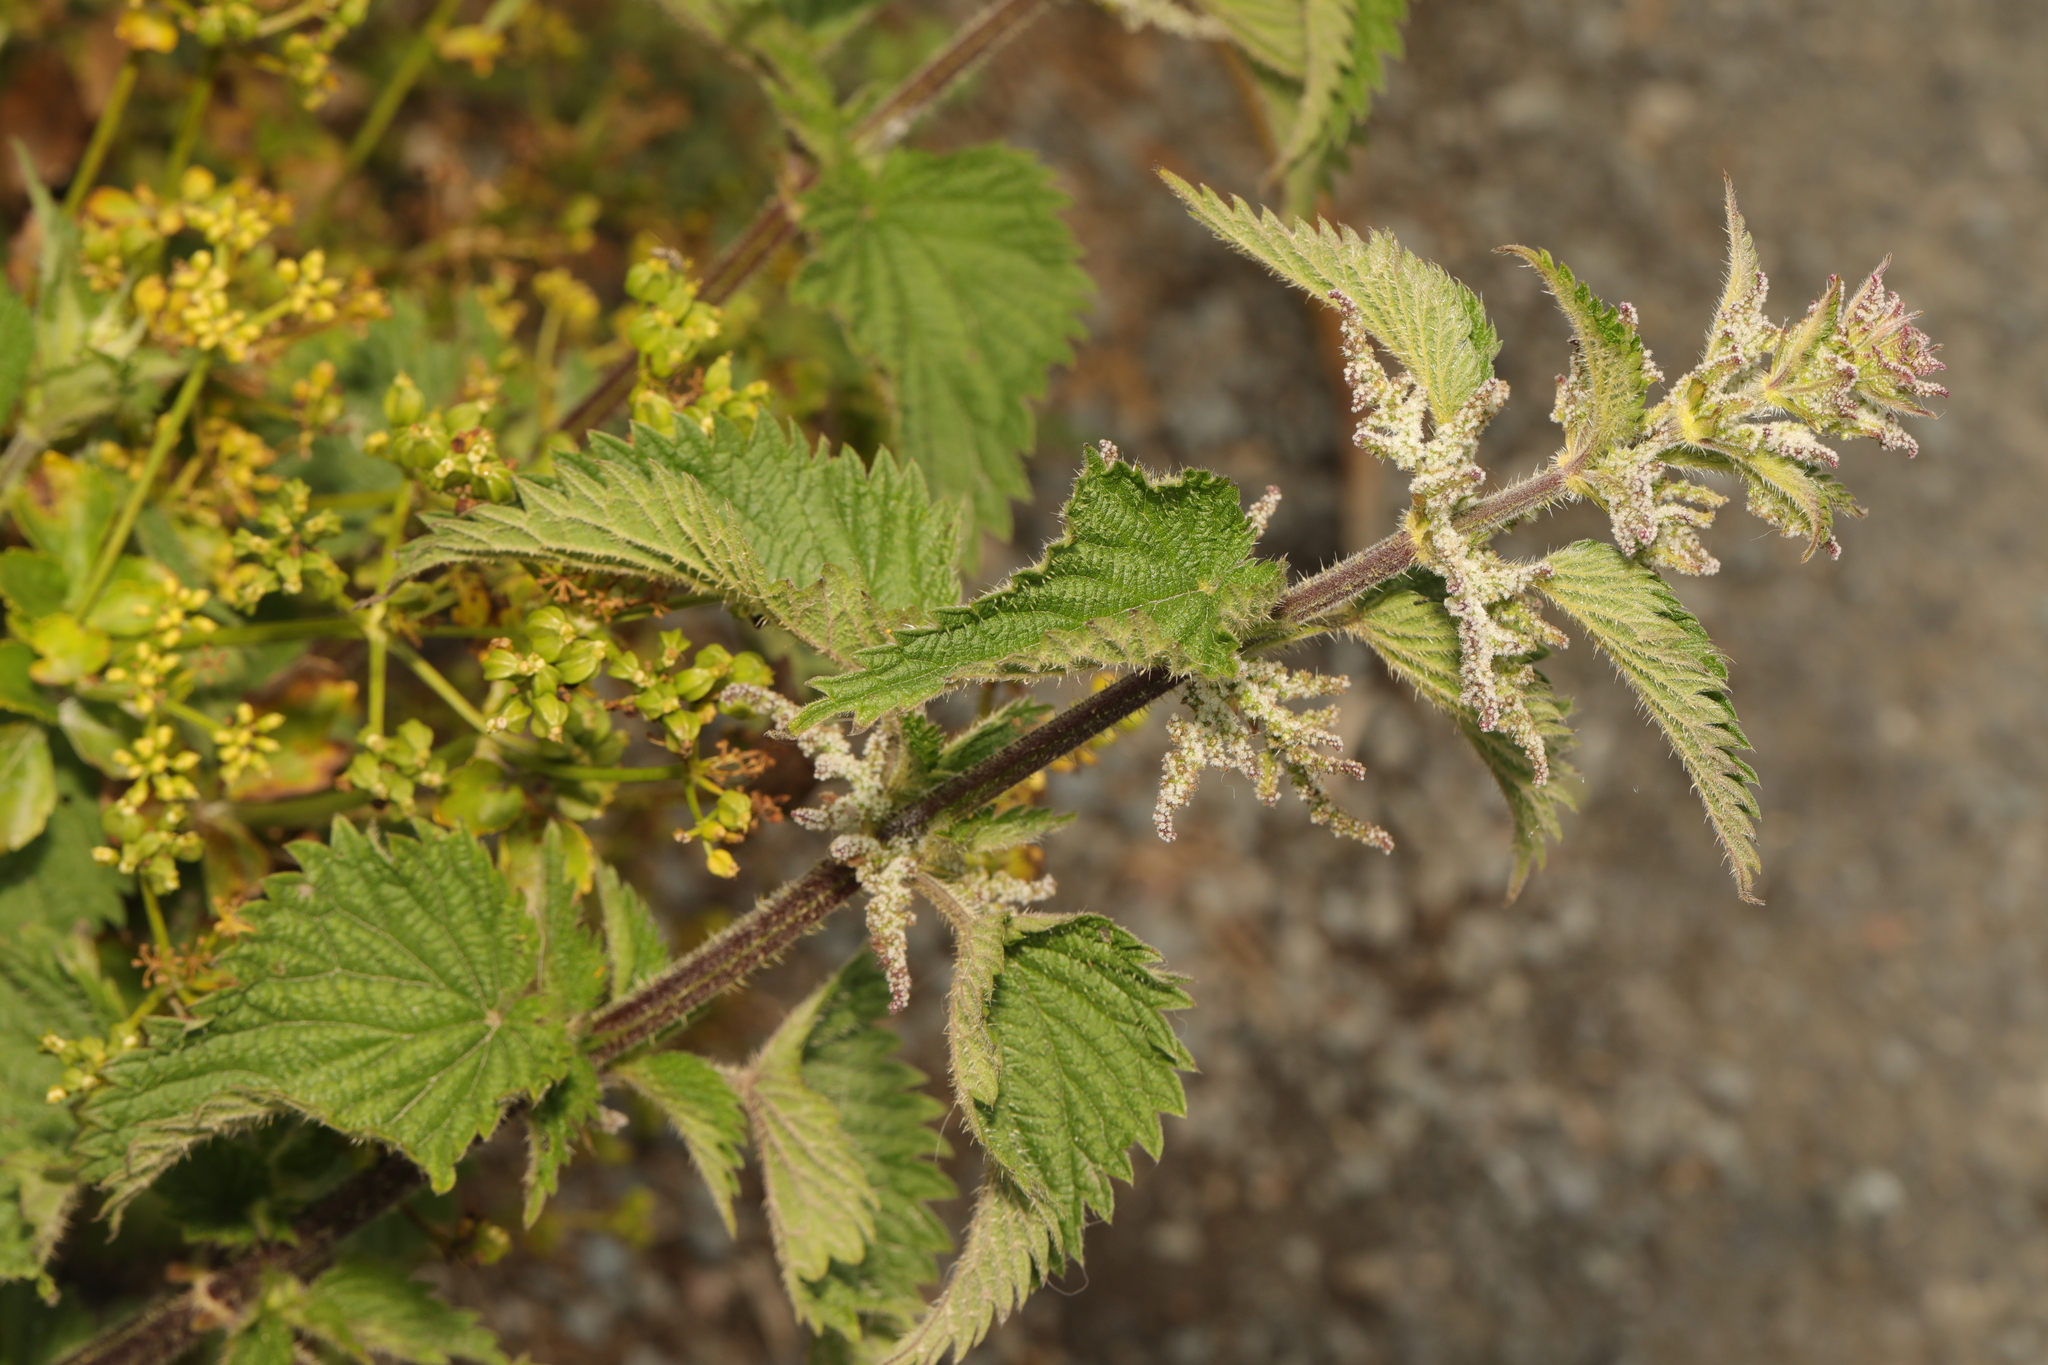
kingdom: Plantae
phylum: Tracheophyta
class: Magnoliopsida
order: Rosales
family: Urticaceae
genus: Urtica
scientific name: Urtica dioica
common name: Common nettle
